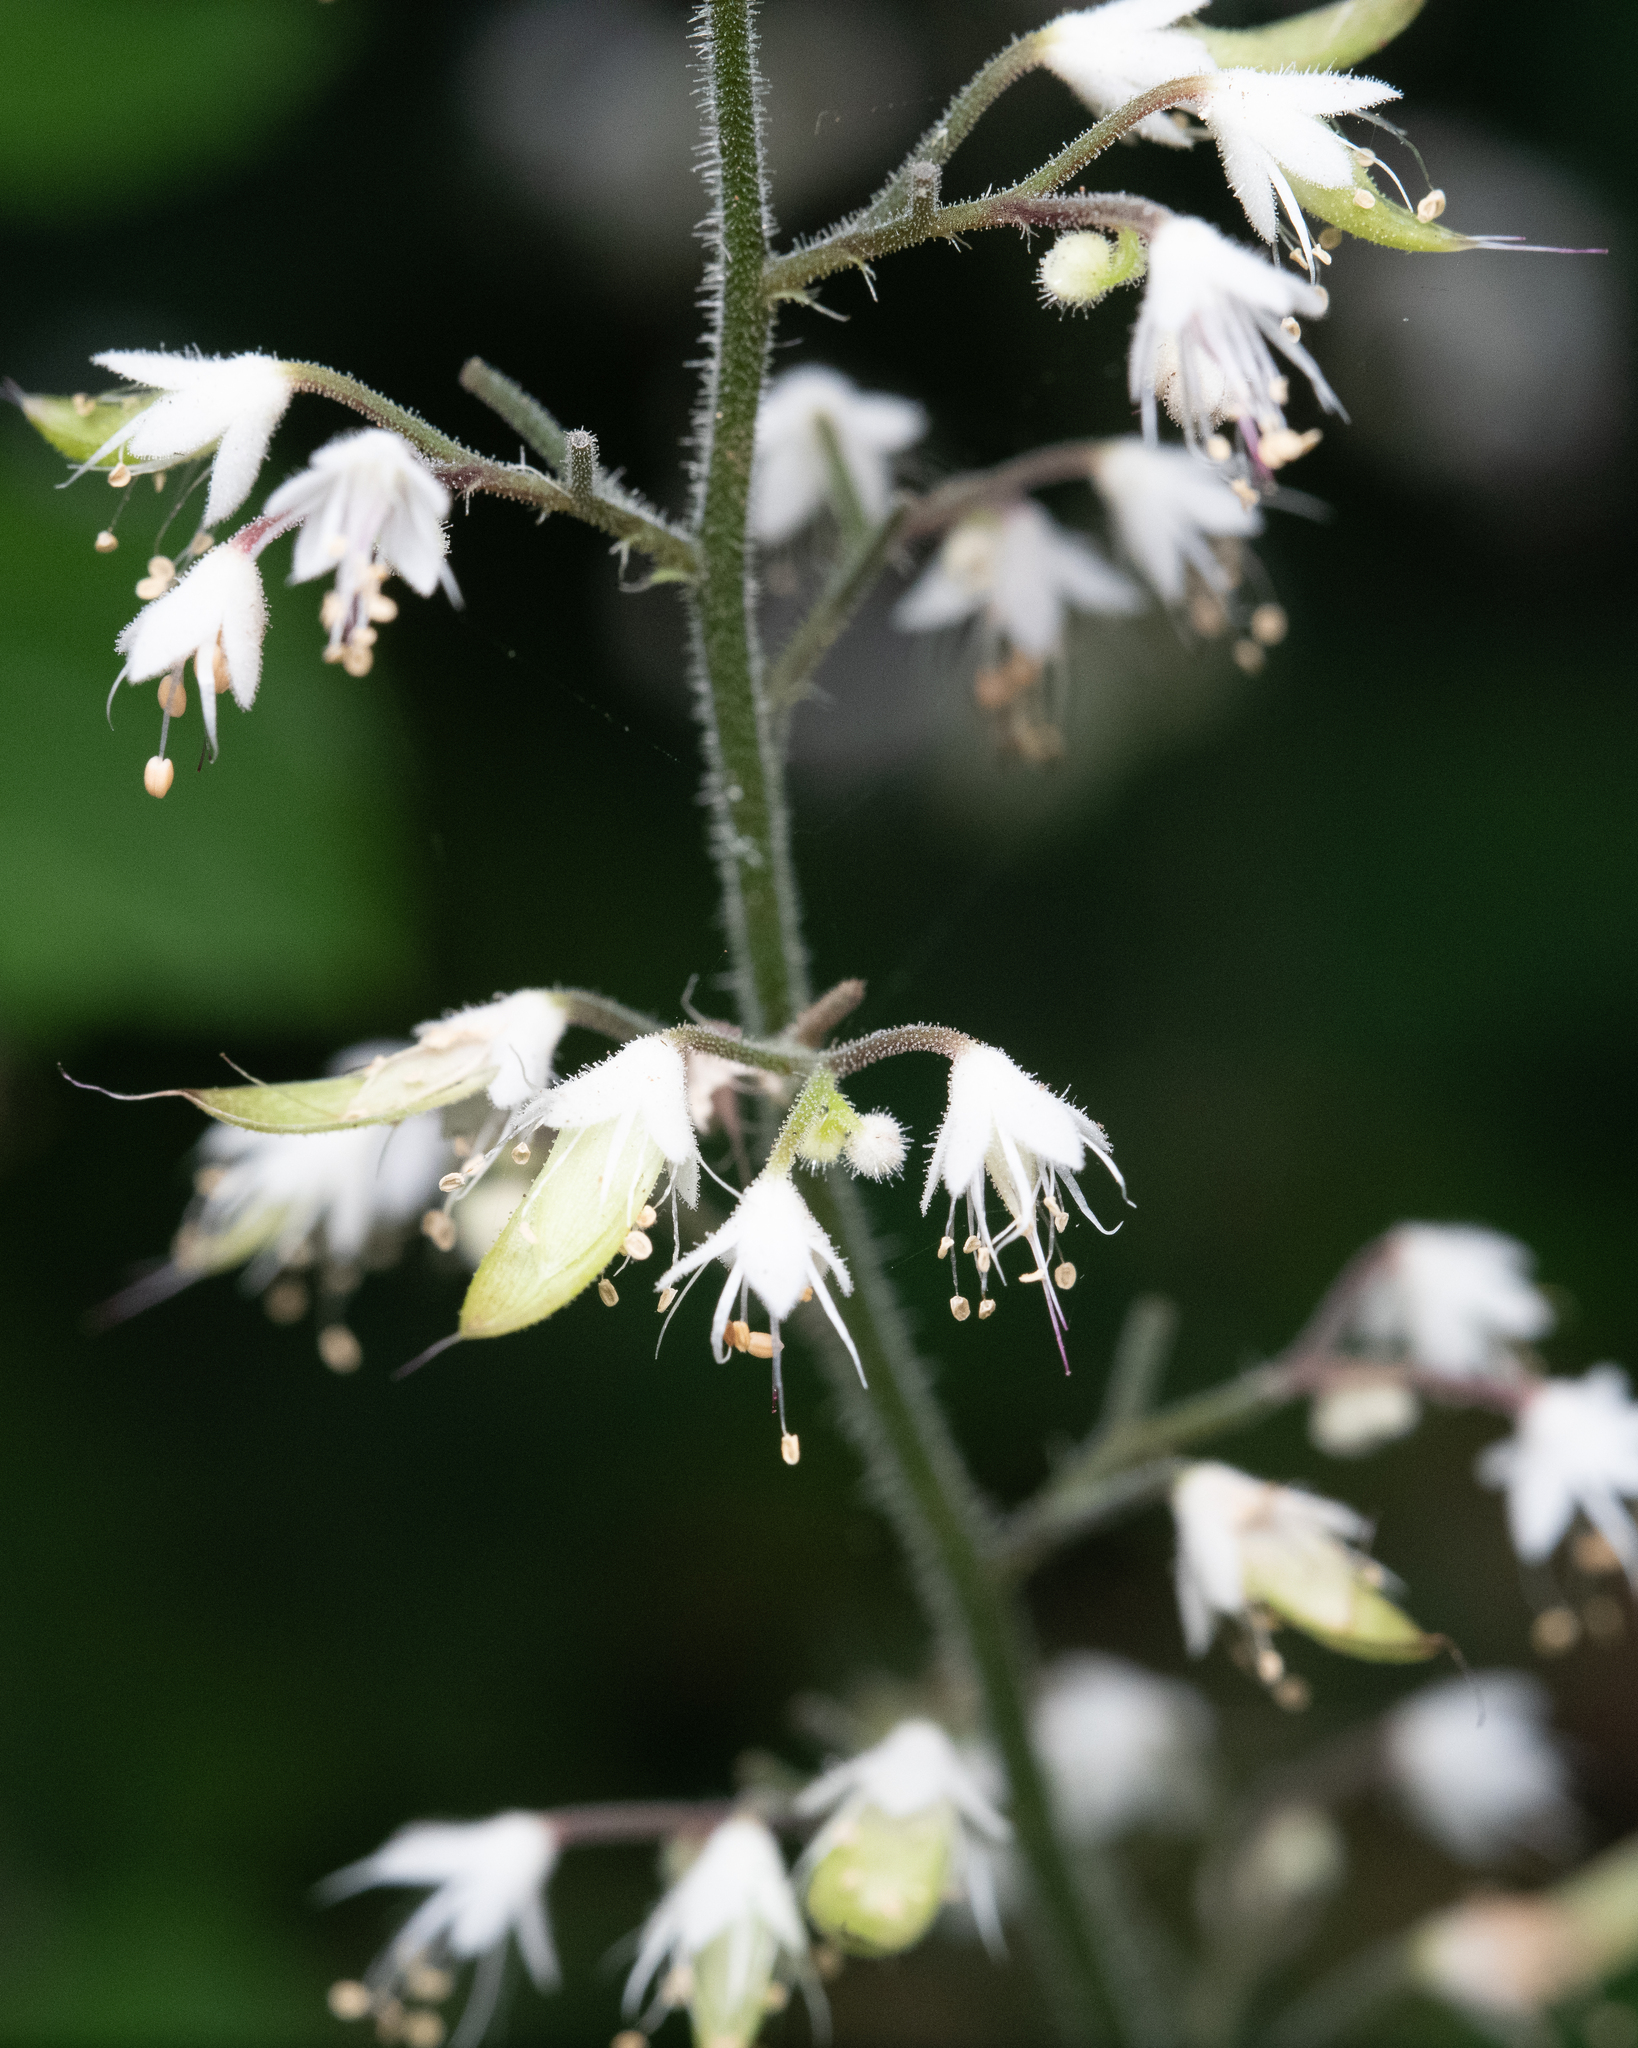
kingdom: Plantae
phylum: Tracheophyta
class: Magnoliopsida
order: Saxifragales
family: Saxifragaceae
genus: Tiarella
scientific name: Tiarella trifoliata
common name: Sugar-scoop
